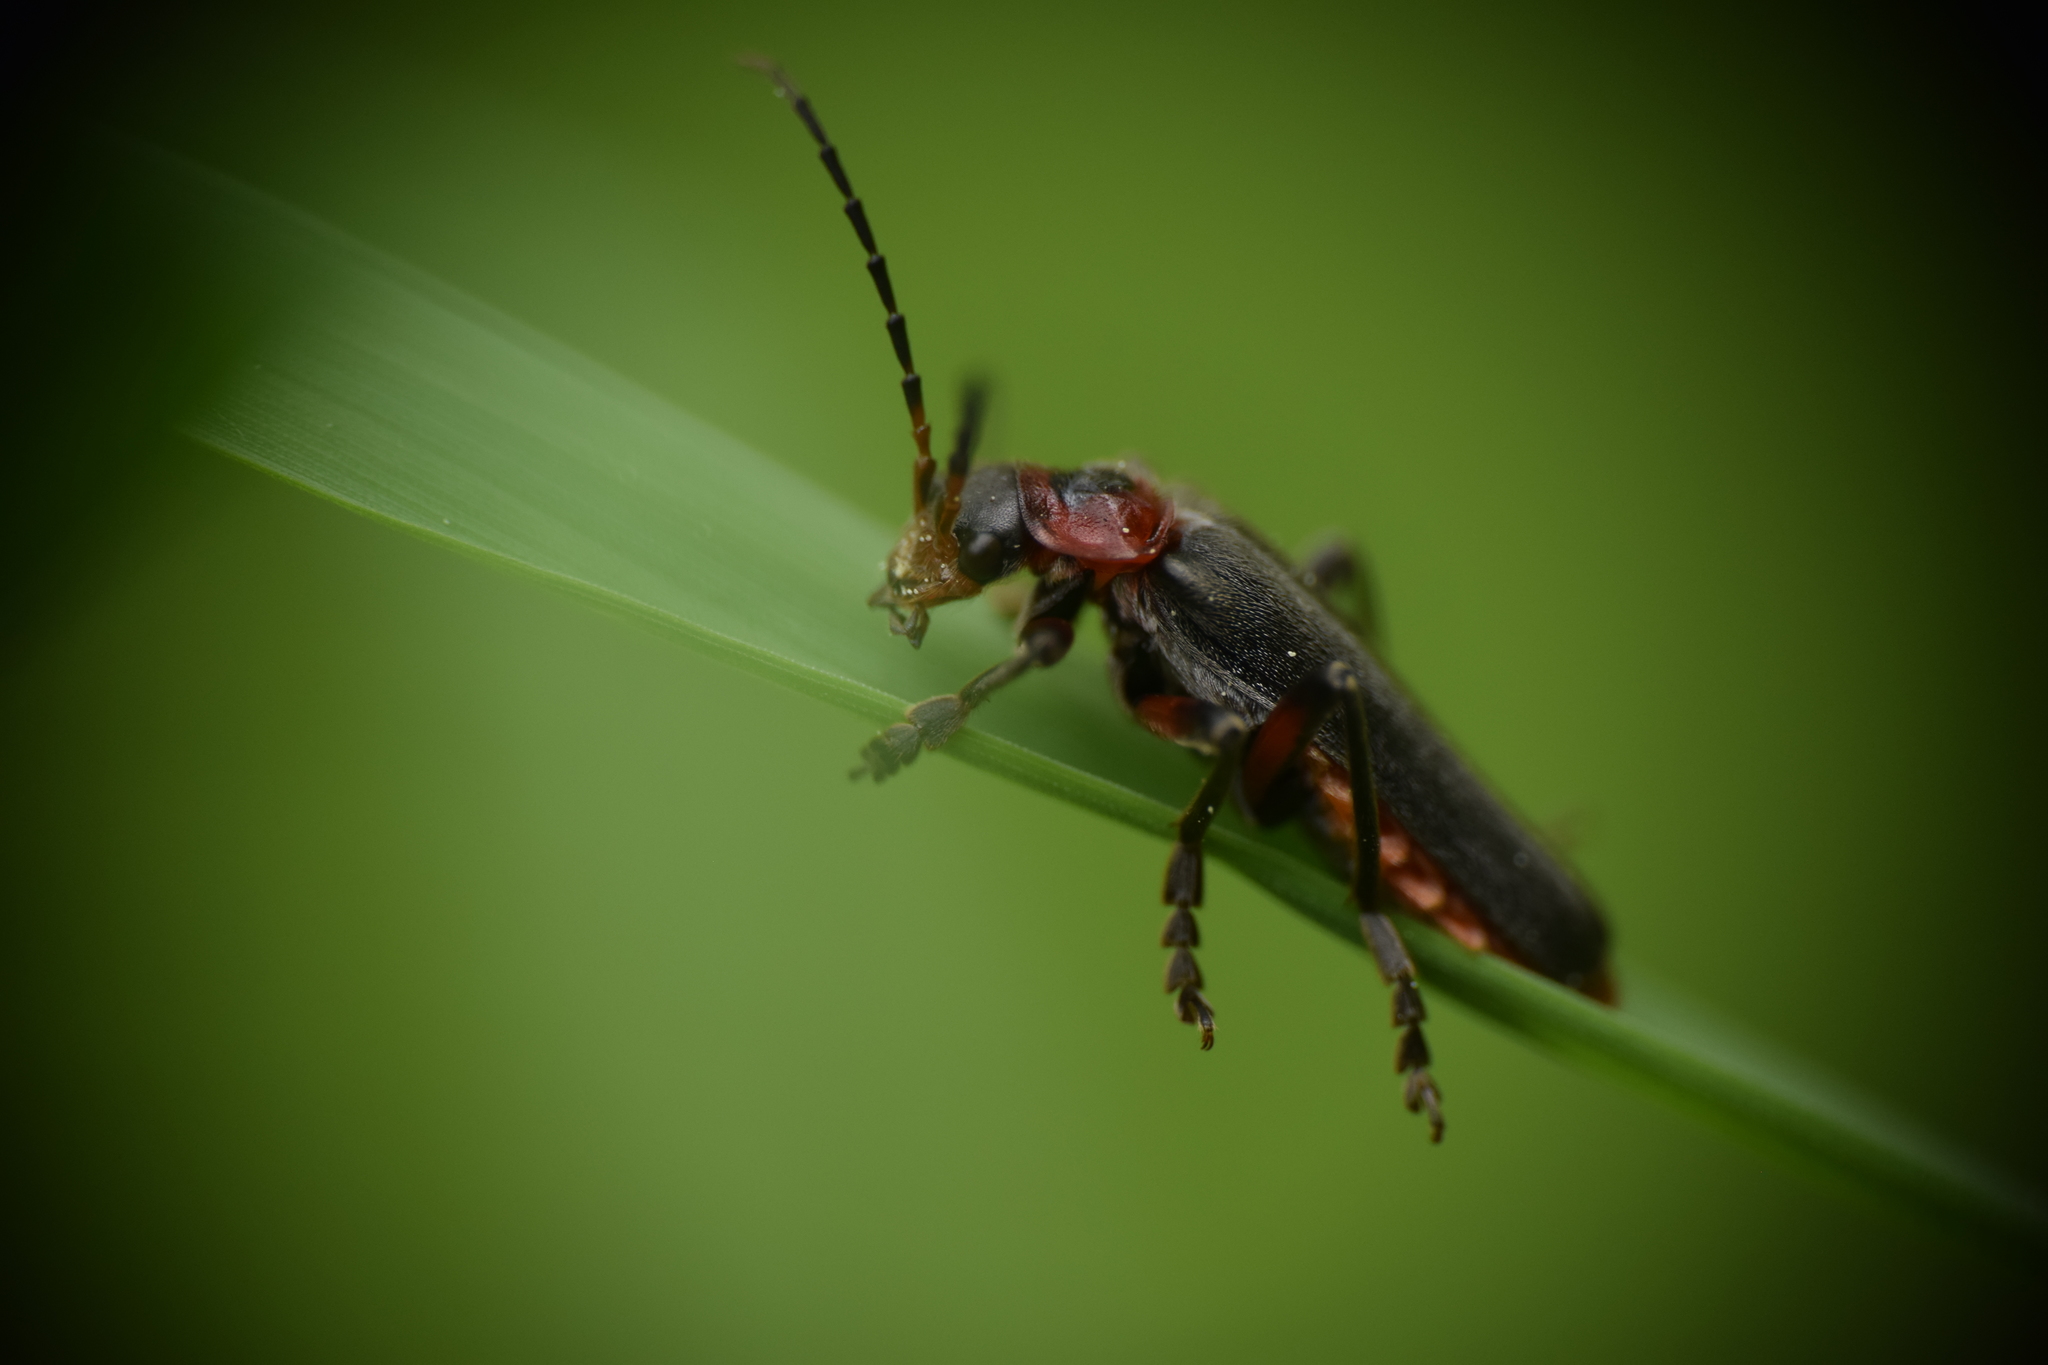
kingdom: Animalia
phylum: Arthropoda
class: Insecta
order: Coleoptera
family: Cantharidae
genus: Cantharis
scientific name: Cantharis rustica
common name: Soldier beetle
